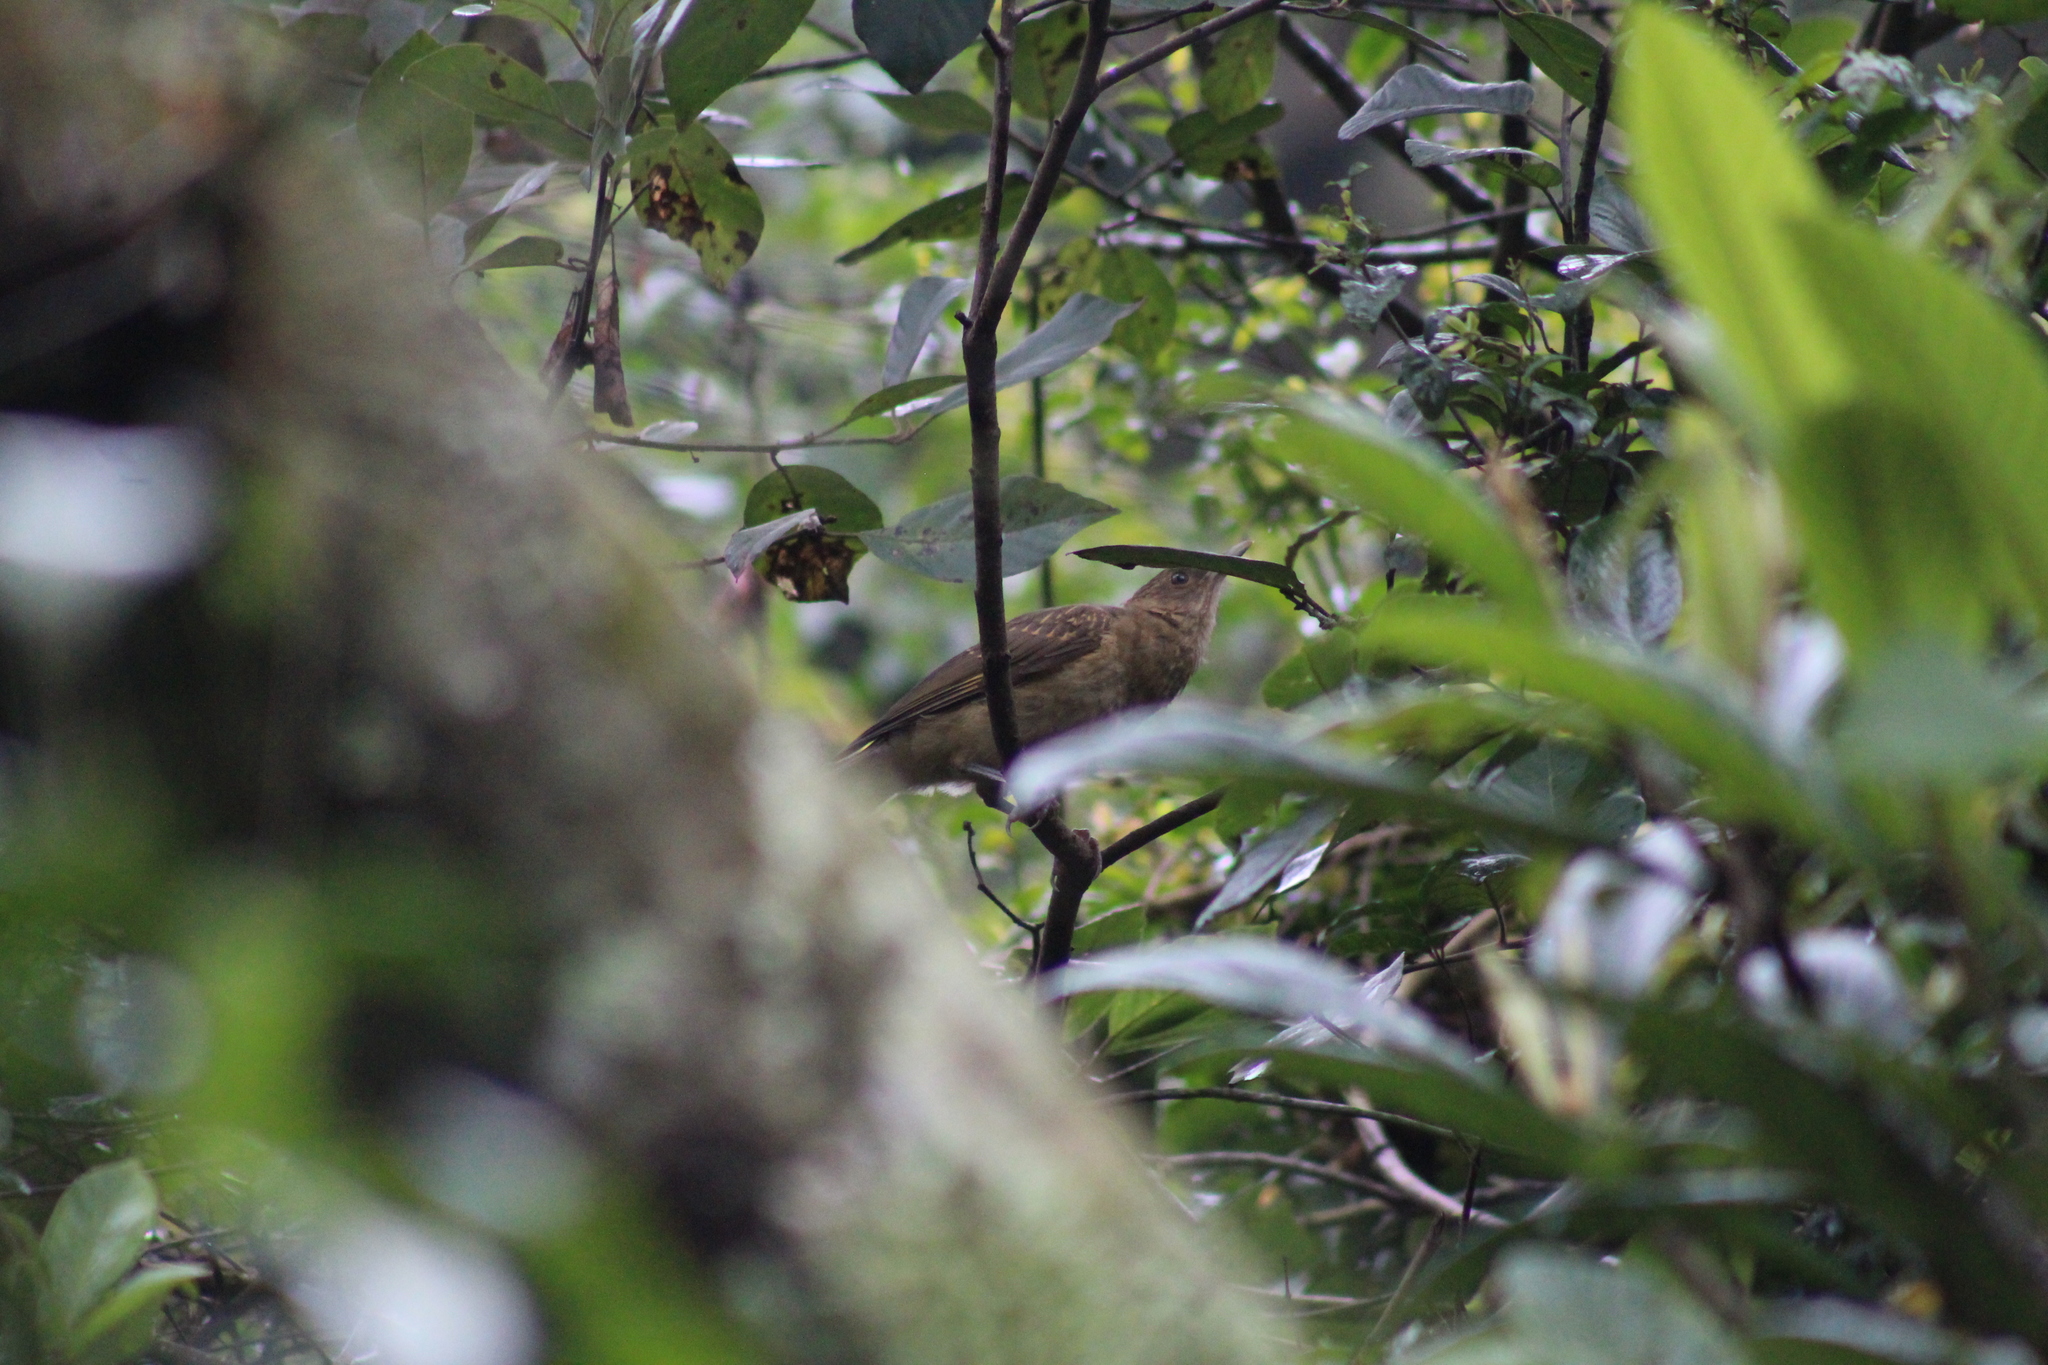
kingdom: Animalia
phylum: Chordata
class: Aves
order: Passeriformes
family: Turdidae
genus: Turdus
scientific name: Turdus grayi
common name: Clay-colored thrush
